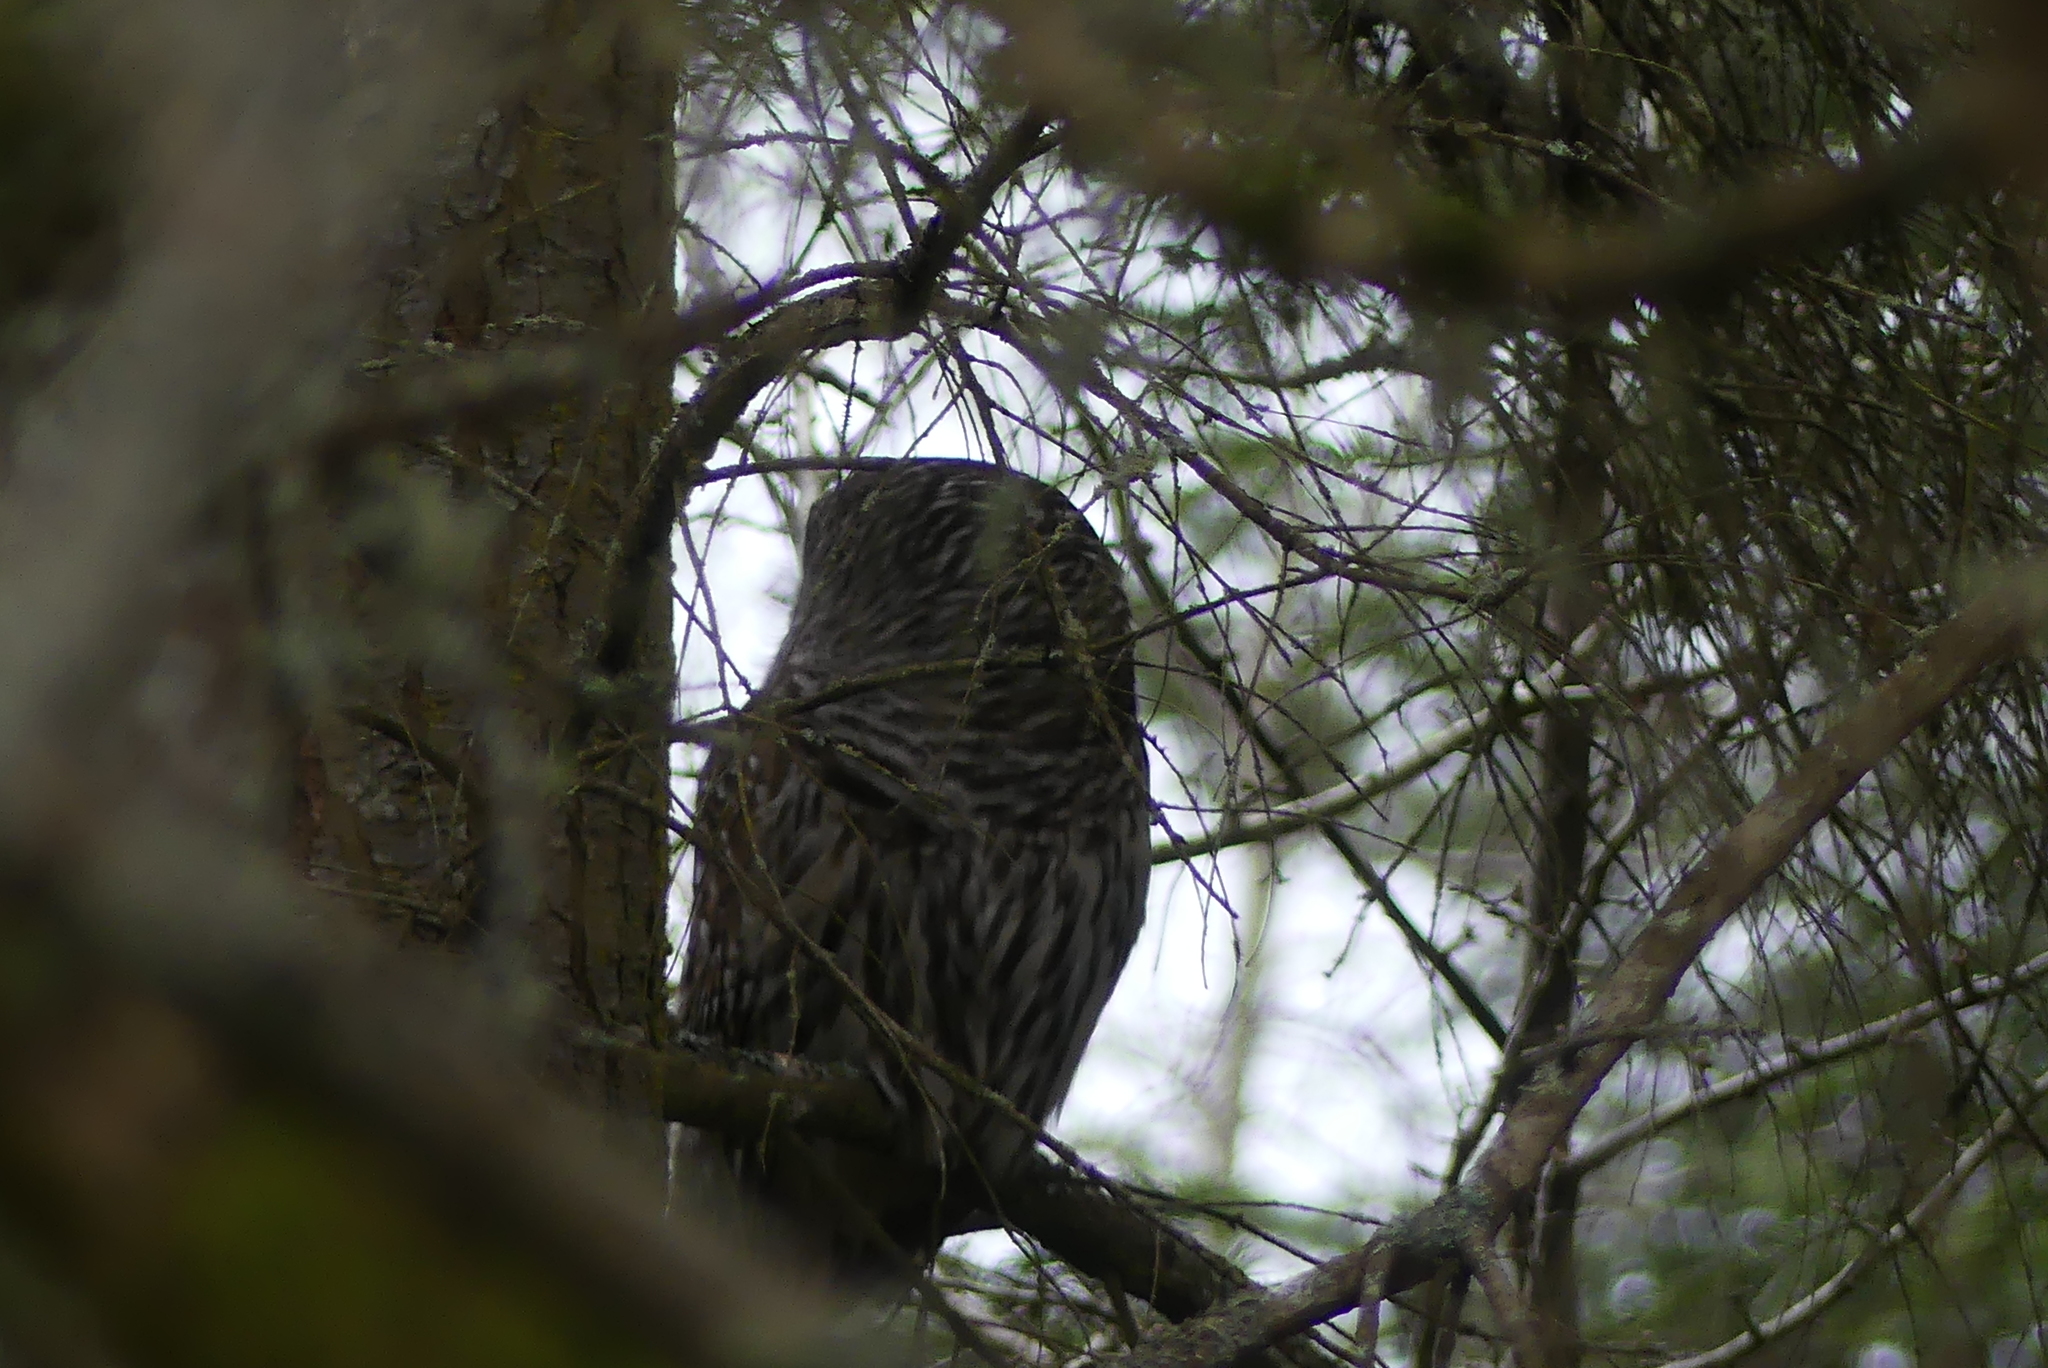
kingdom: Animalia
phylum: Chordata
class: Aves
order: Strigiformes
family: Strigidae
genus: Strix
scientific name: Strix varia
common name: Barred owl
